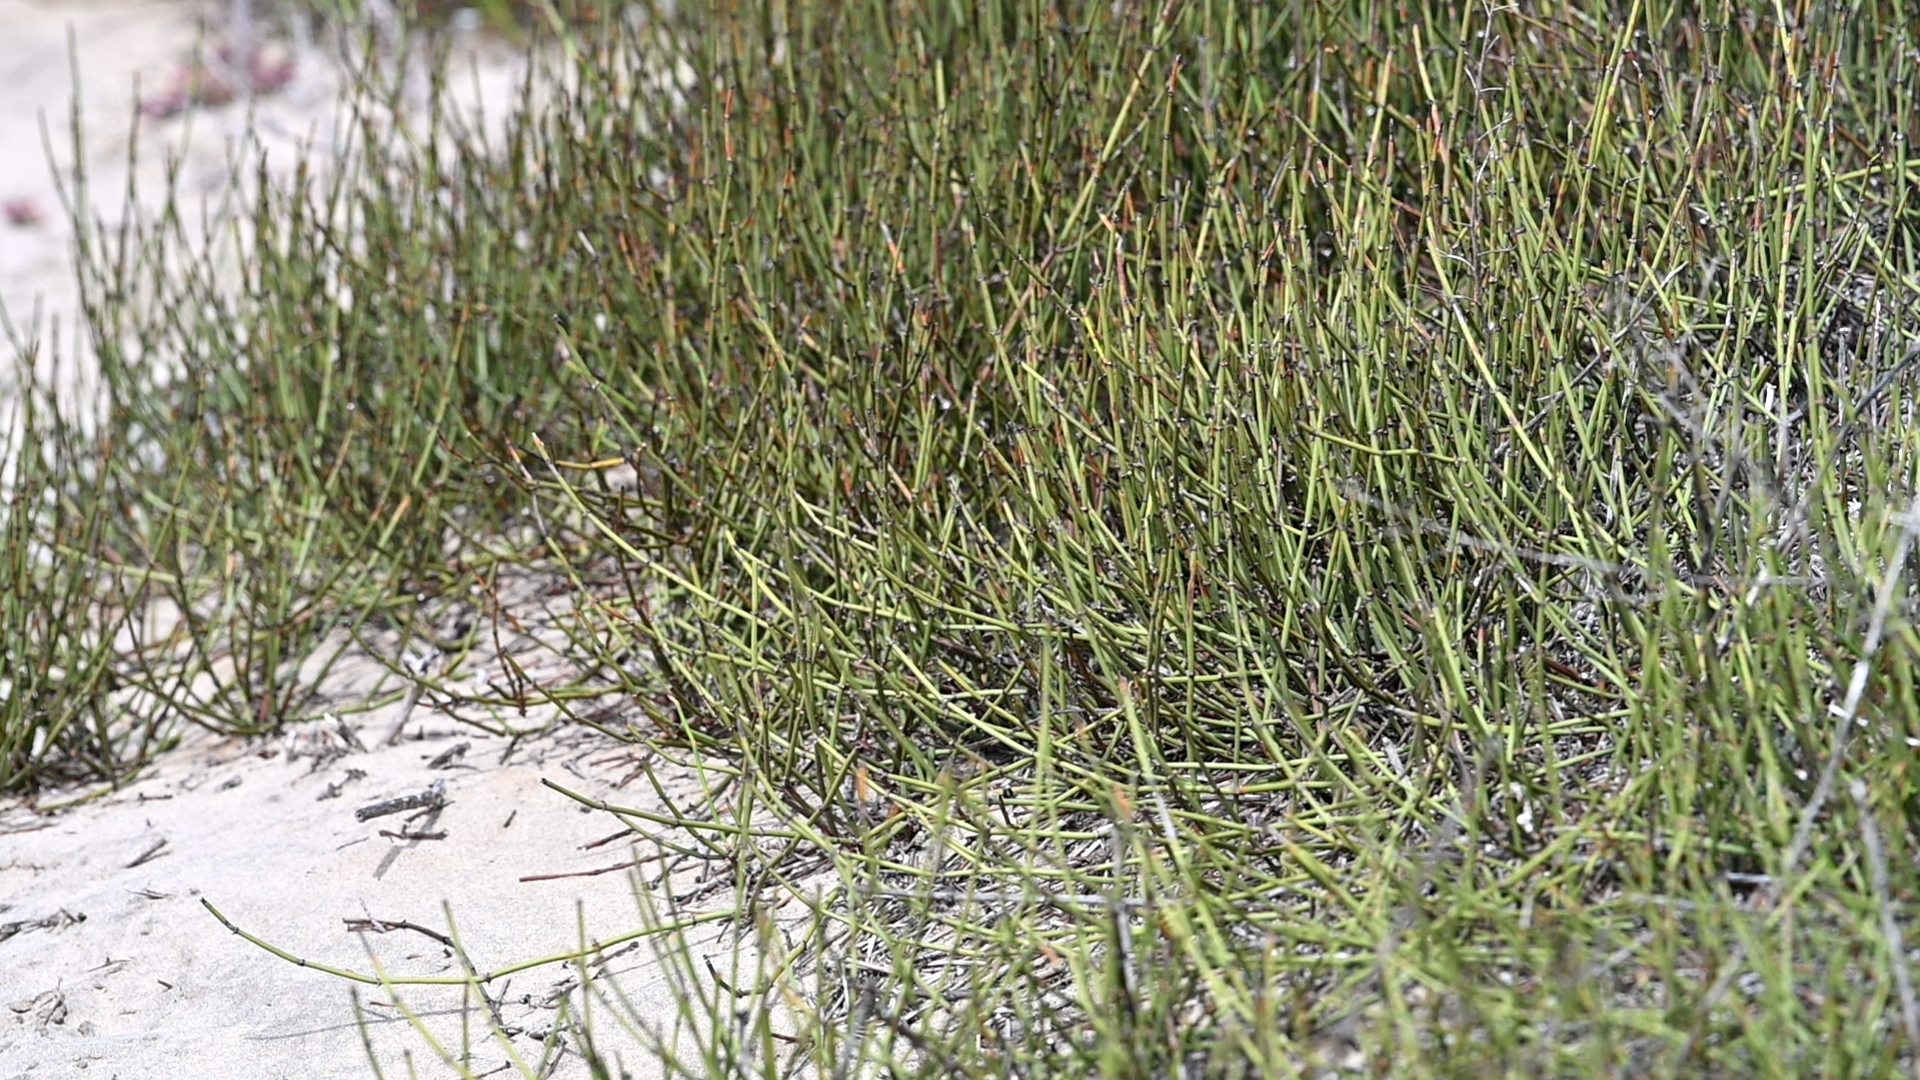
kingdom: Plantae
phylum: Tracheophyta
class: Gnetopsida
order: Ephedrales
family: Ephedraceae
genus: Ephedra
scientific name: Ephedra californica
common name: California ephedra
